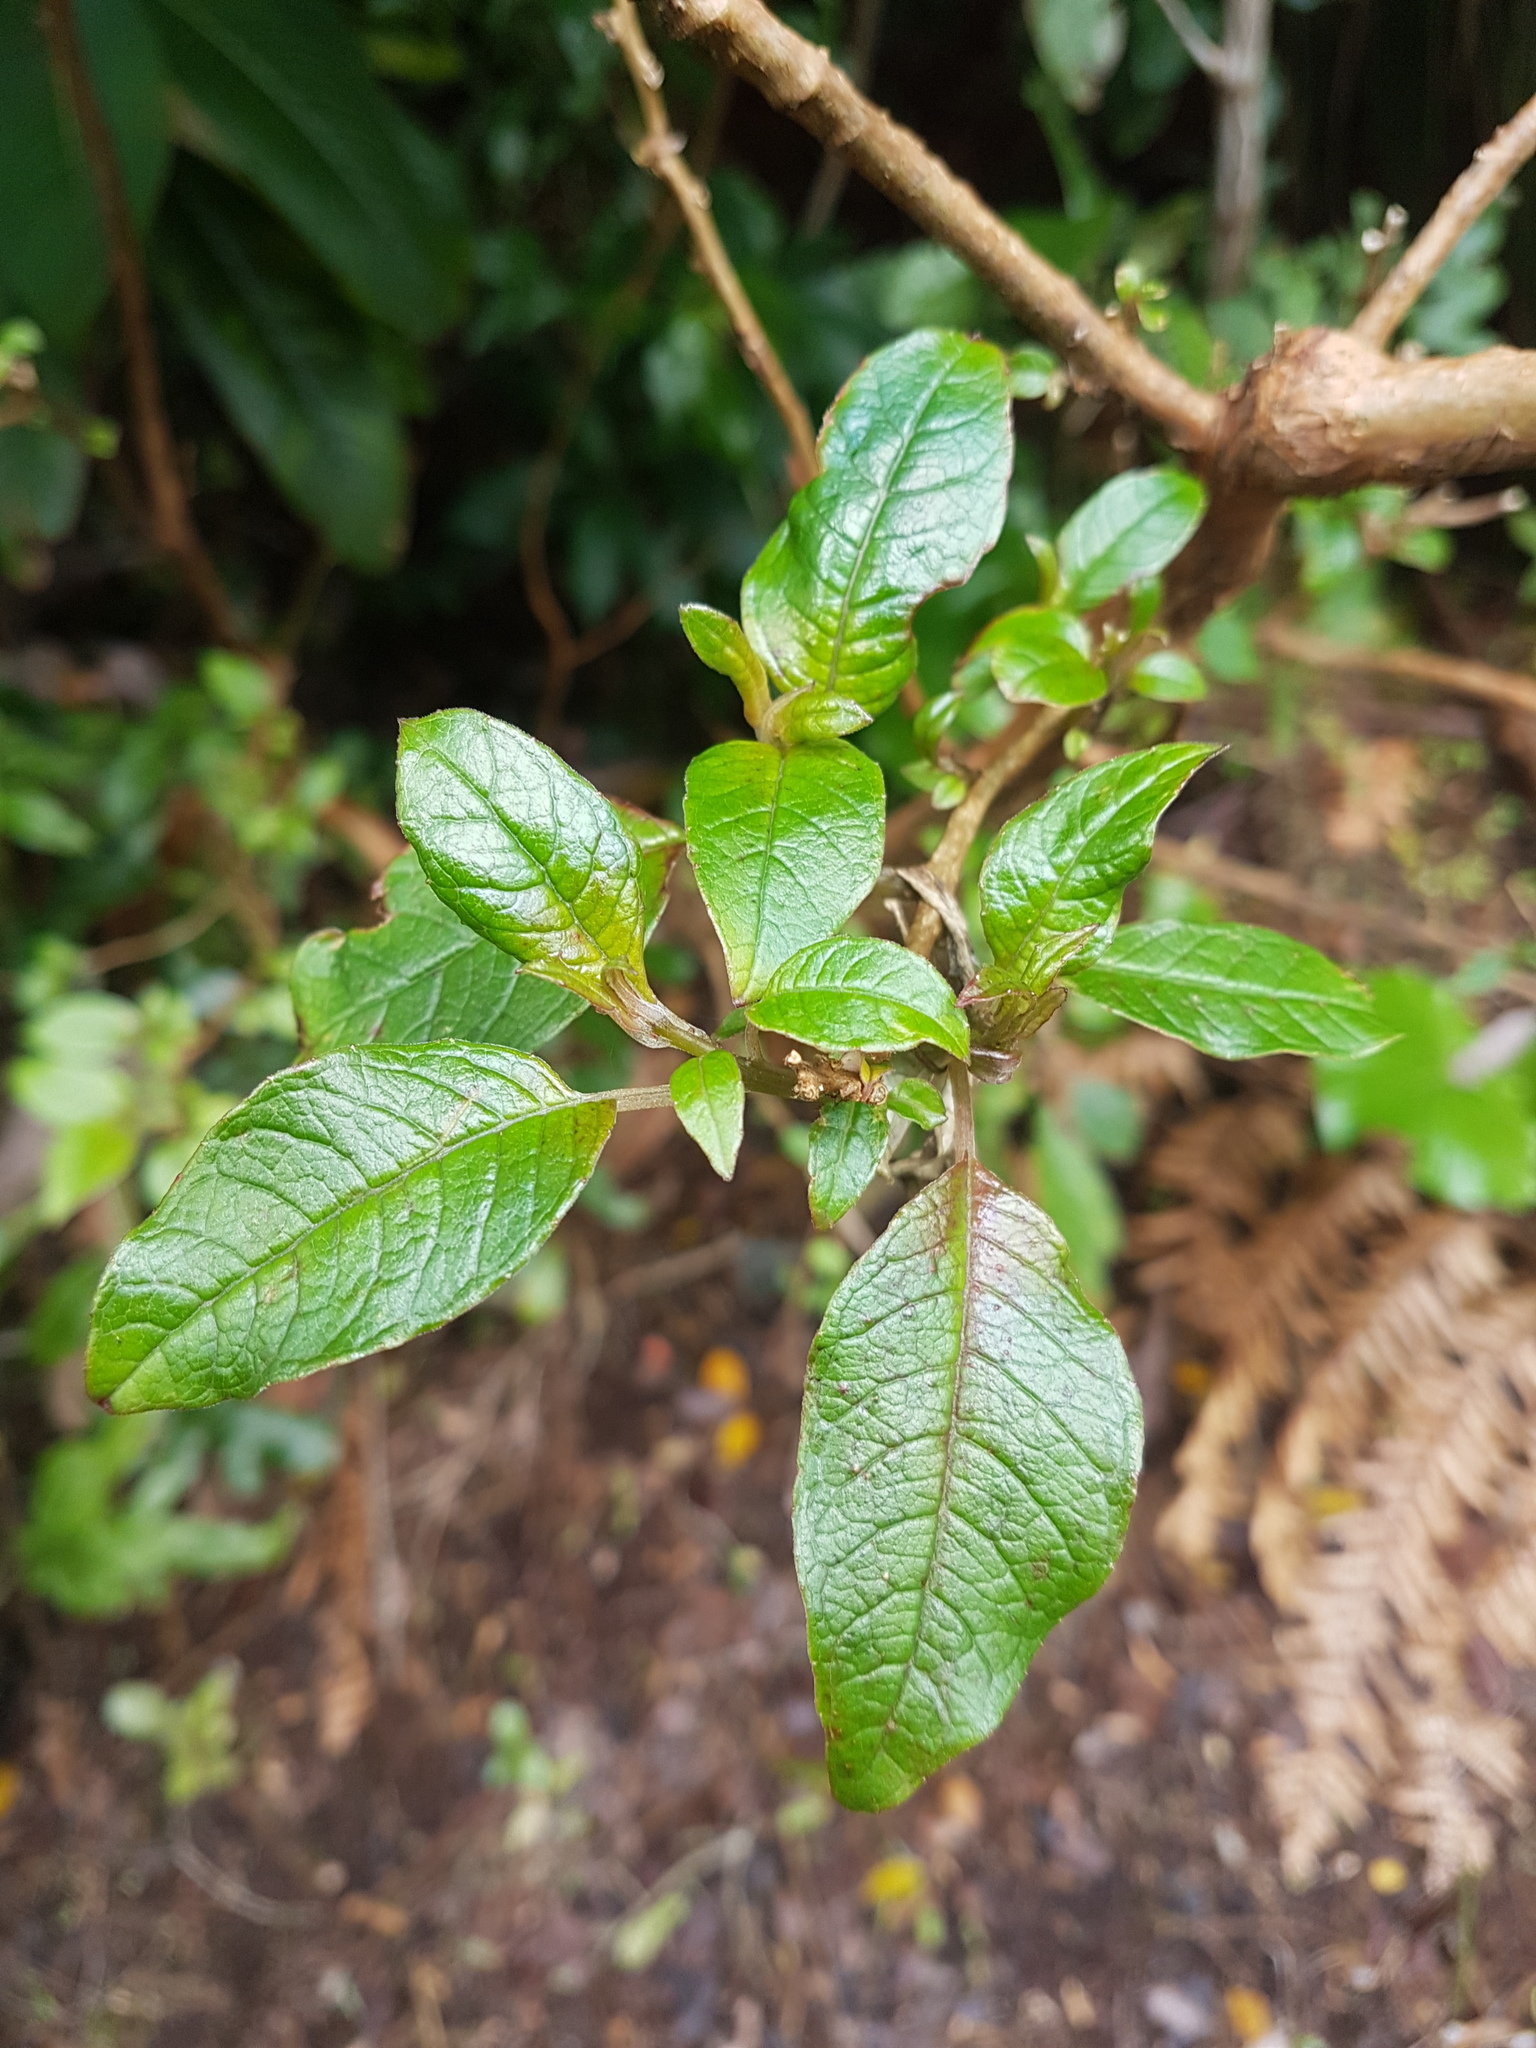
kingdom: Plantae
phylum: Tracheophyta
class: Magnoliopsida
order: Myrtales
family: Onagraceae
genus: Fuchsia
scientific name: Fuchsia excorticata
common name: Tree fuchsia
